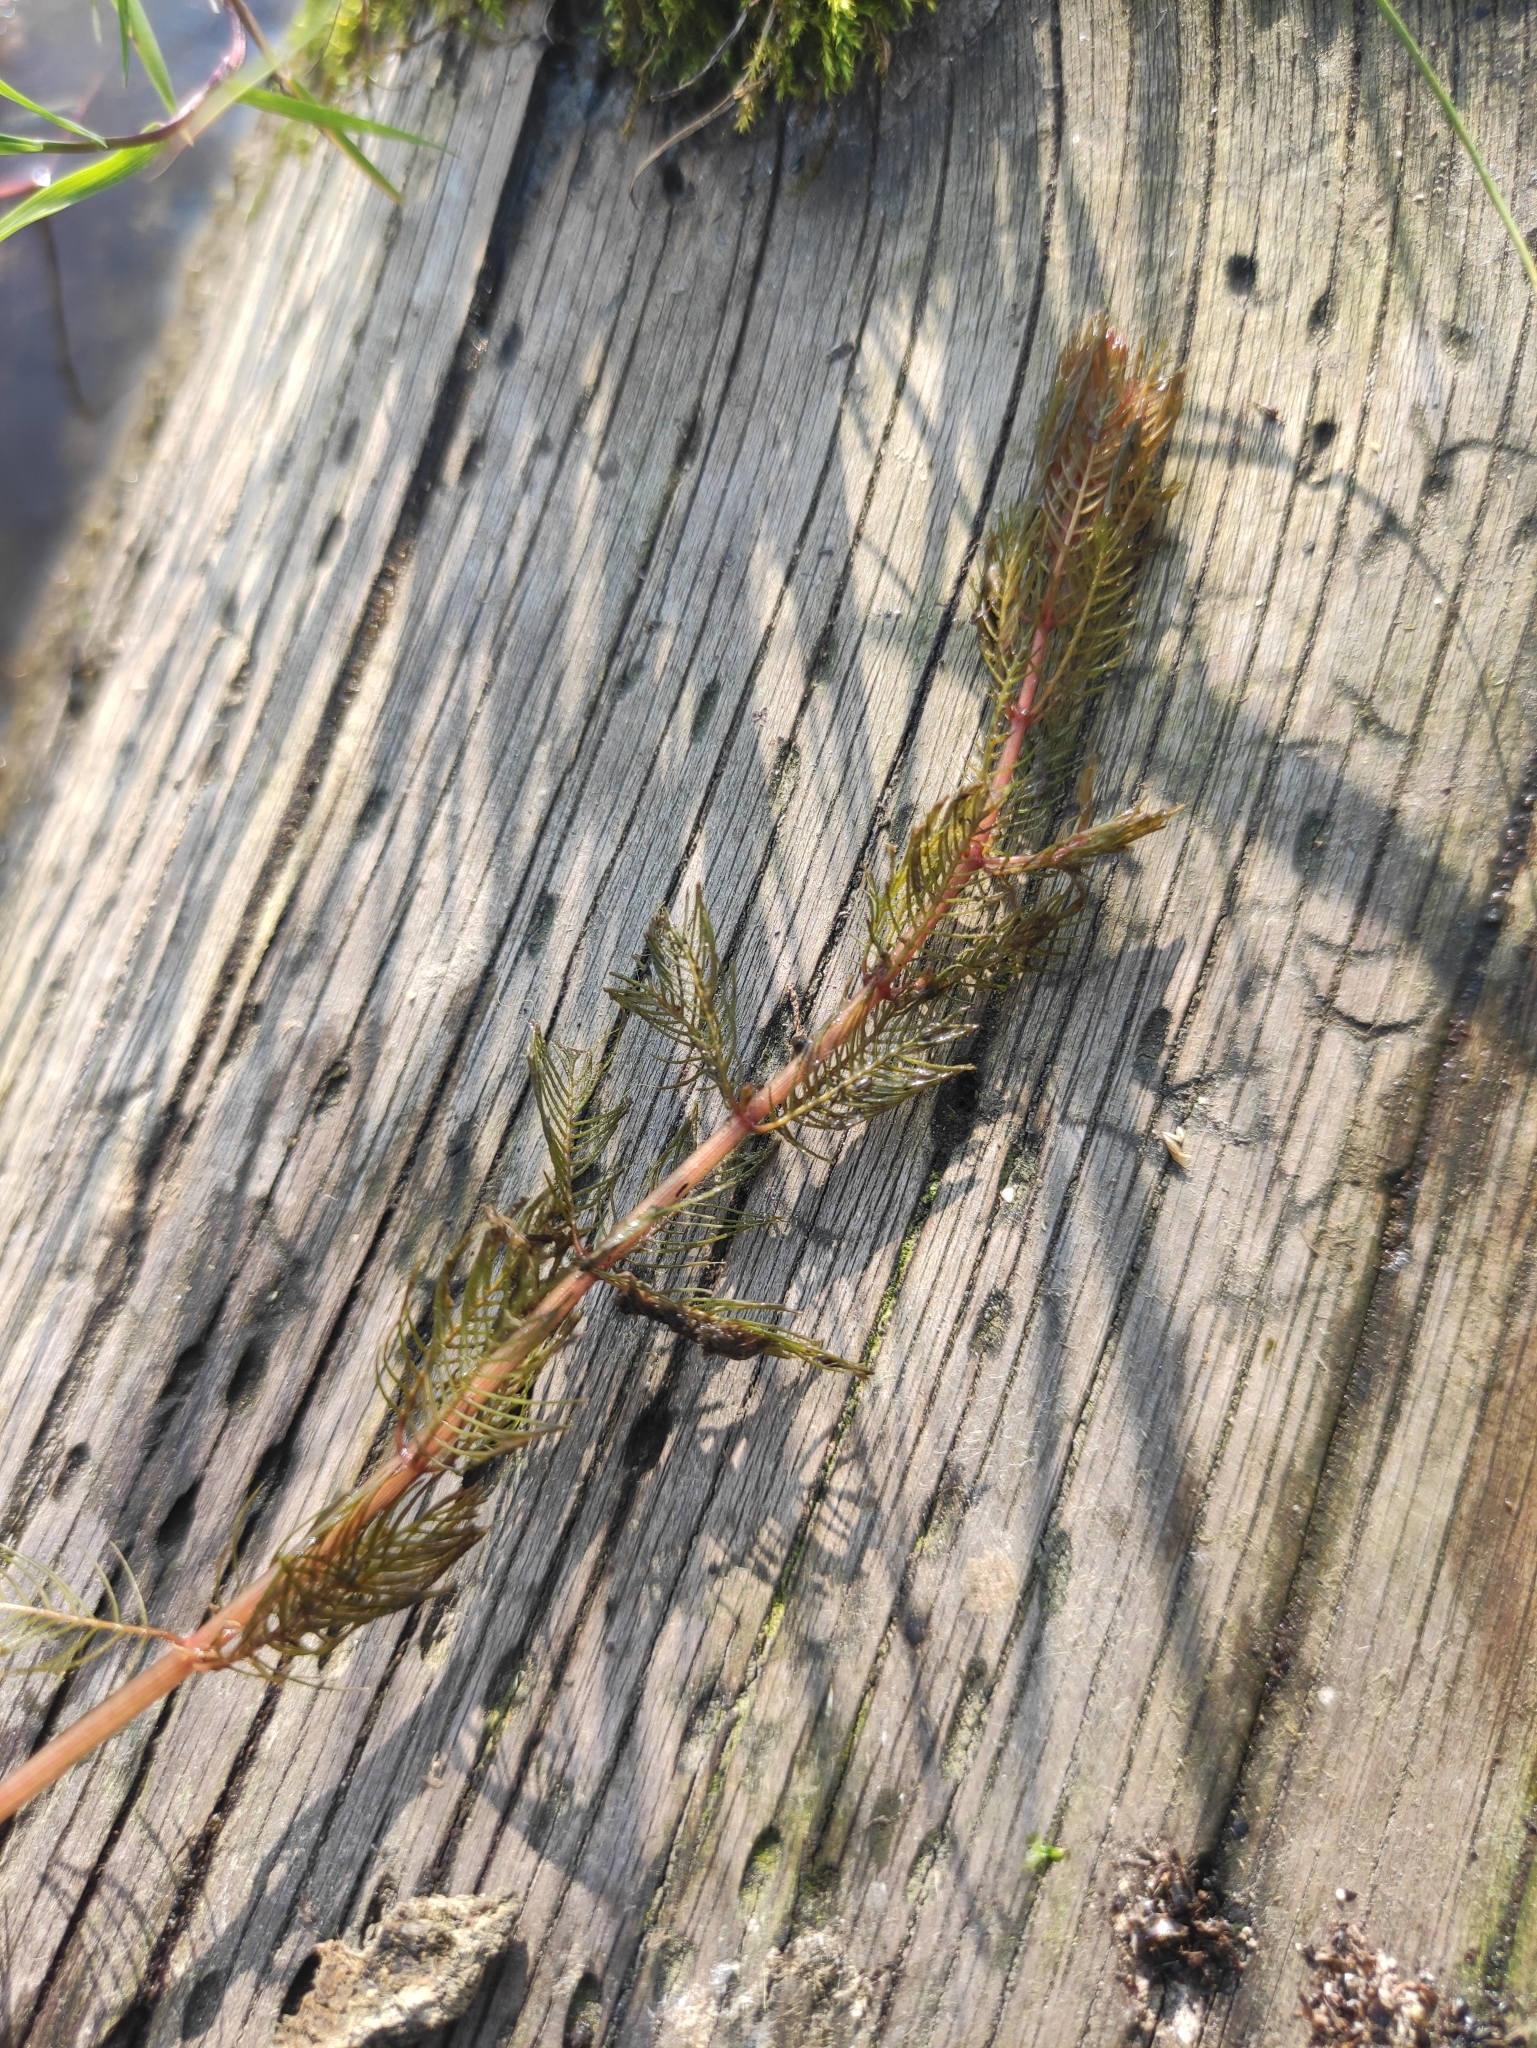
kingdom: Plantae
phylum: Tracheophyta
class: Magnoliopsida
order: Saxifragales
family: Haloragaceae
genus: Myriophyllum
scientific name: Myriophyllum sibiricum
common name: Siberian water-milfoil
